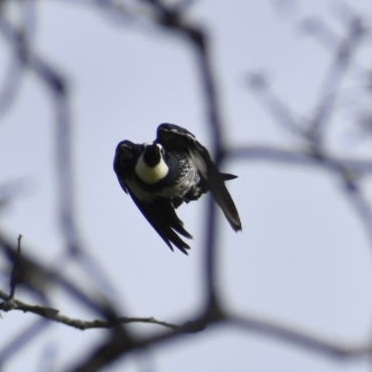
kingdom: Animalia
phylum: Chordata
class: Aves
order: Piciformes
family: Picidae
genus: Melanerpes
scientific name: Melanerpes formicivorus
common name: Acorn woodpecker
